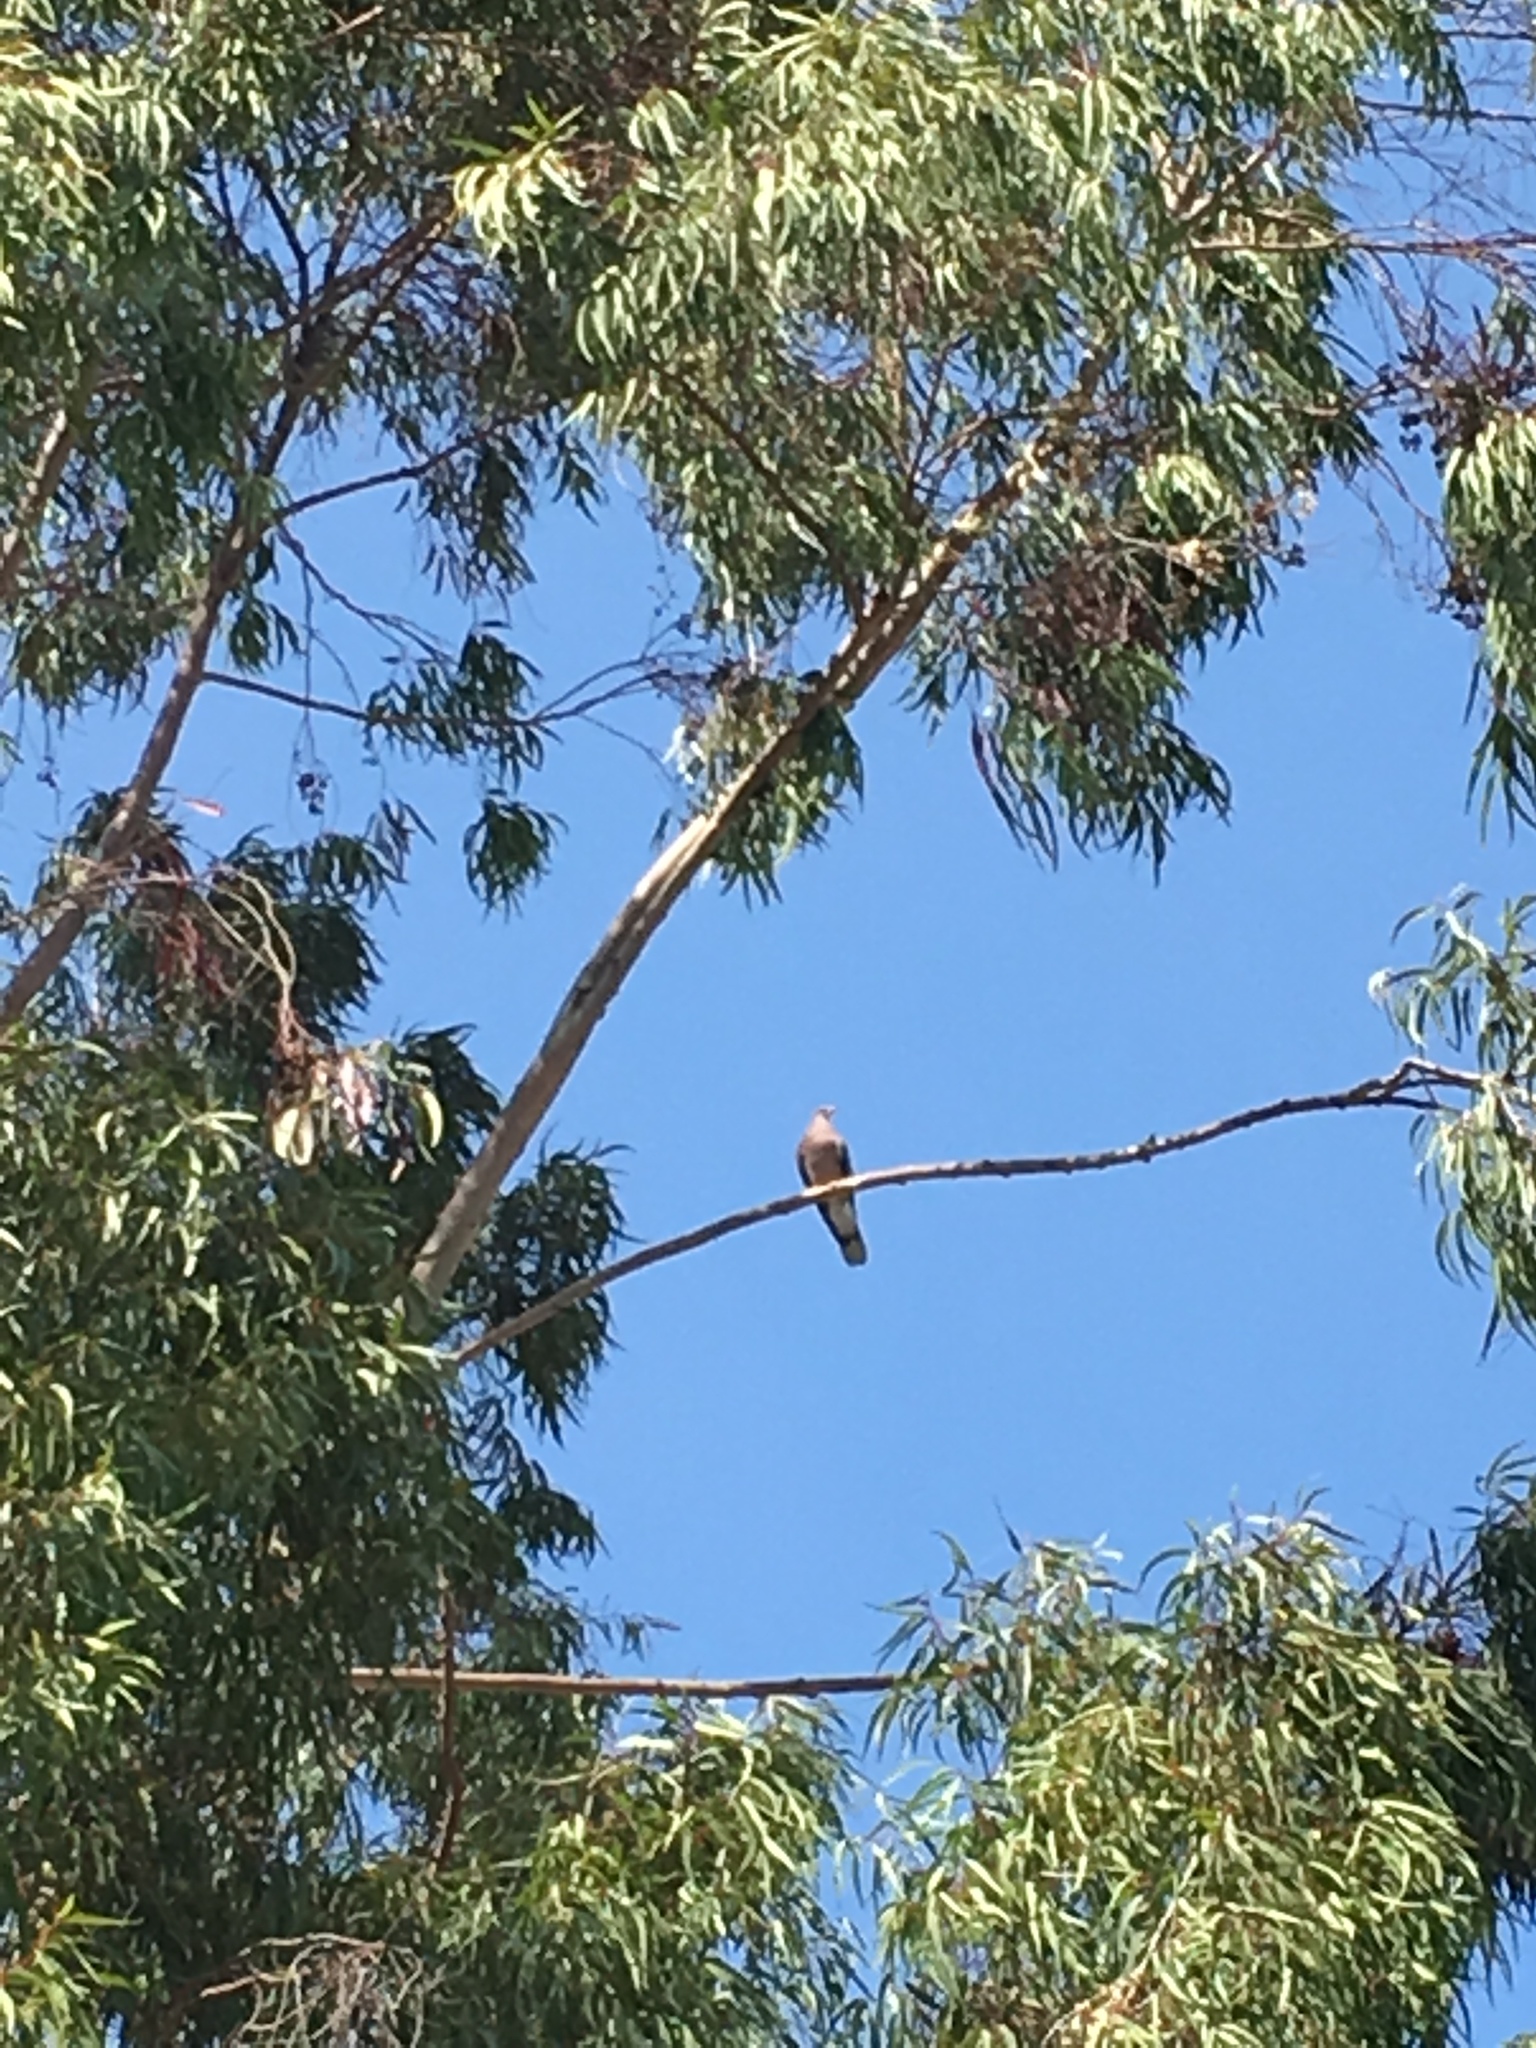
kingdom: Animalia
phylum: Chordata
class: Aves
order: Columbiformes
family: Columbidae
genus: Patagioenas
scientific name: Patagioenas fasciata
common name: Band-tailed pigeon
